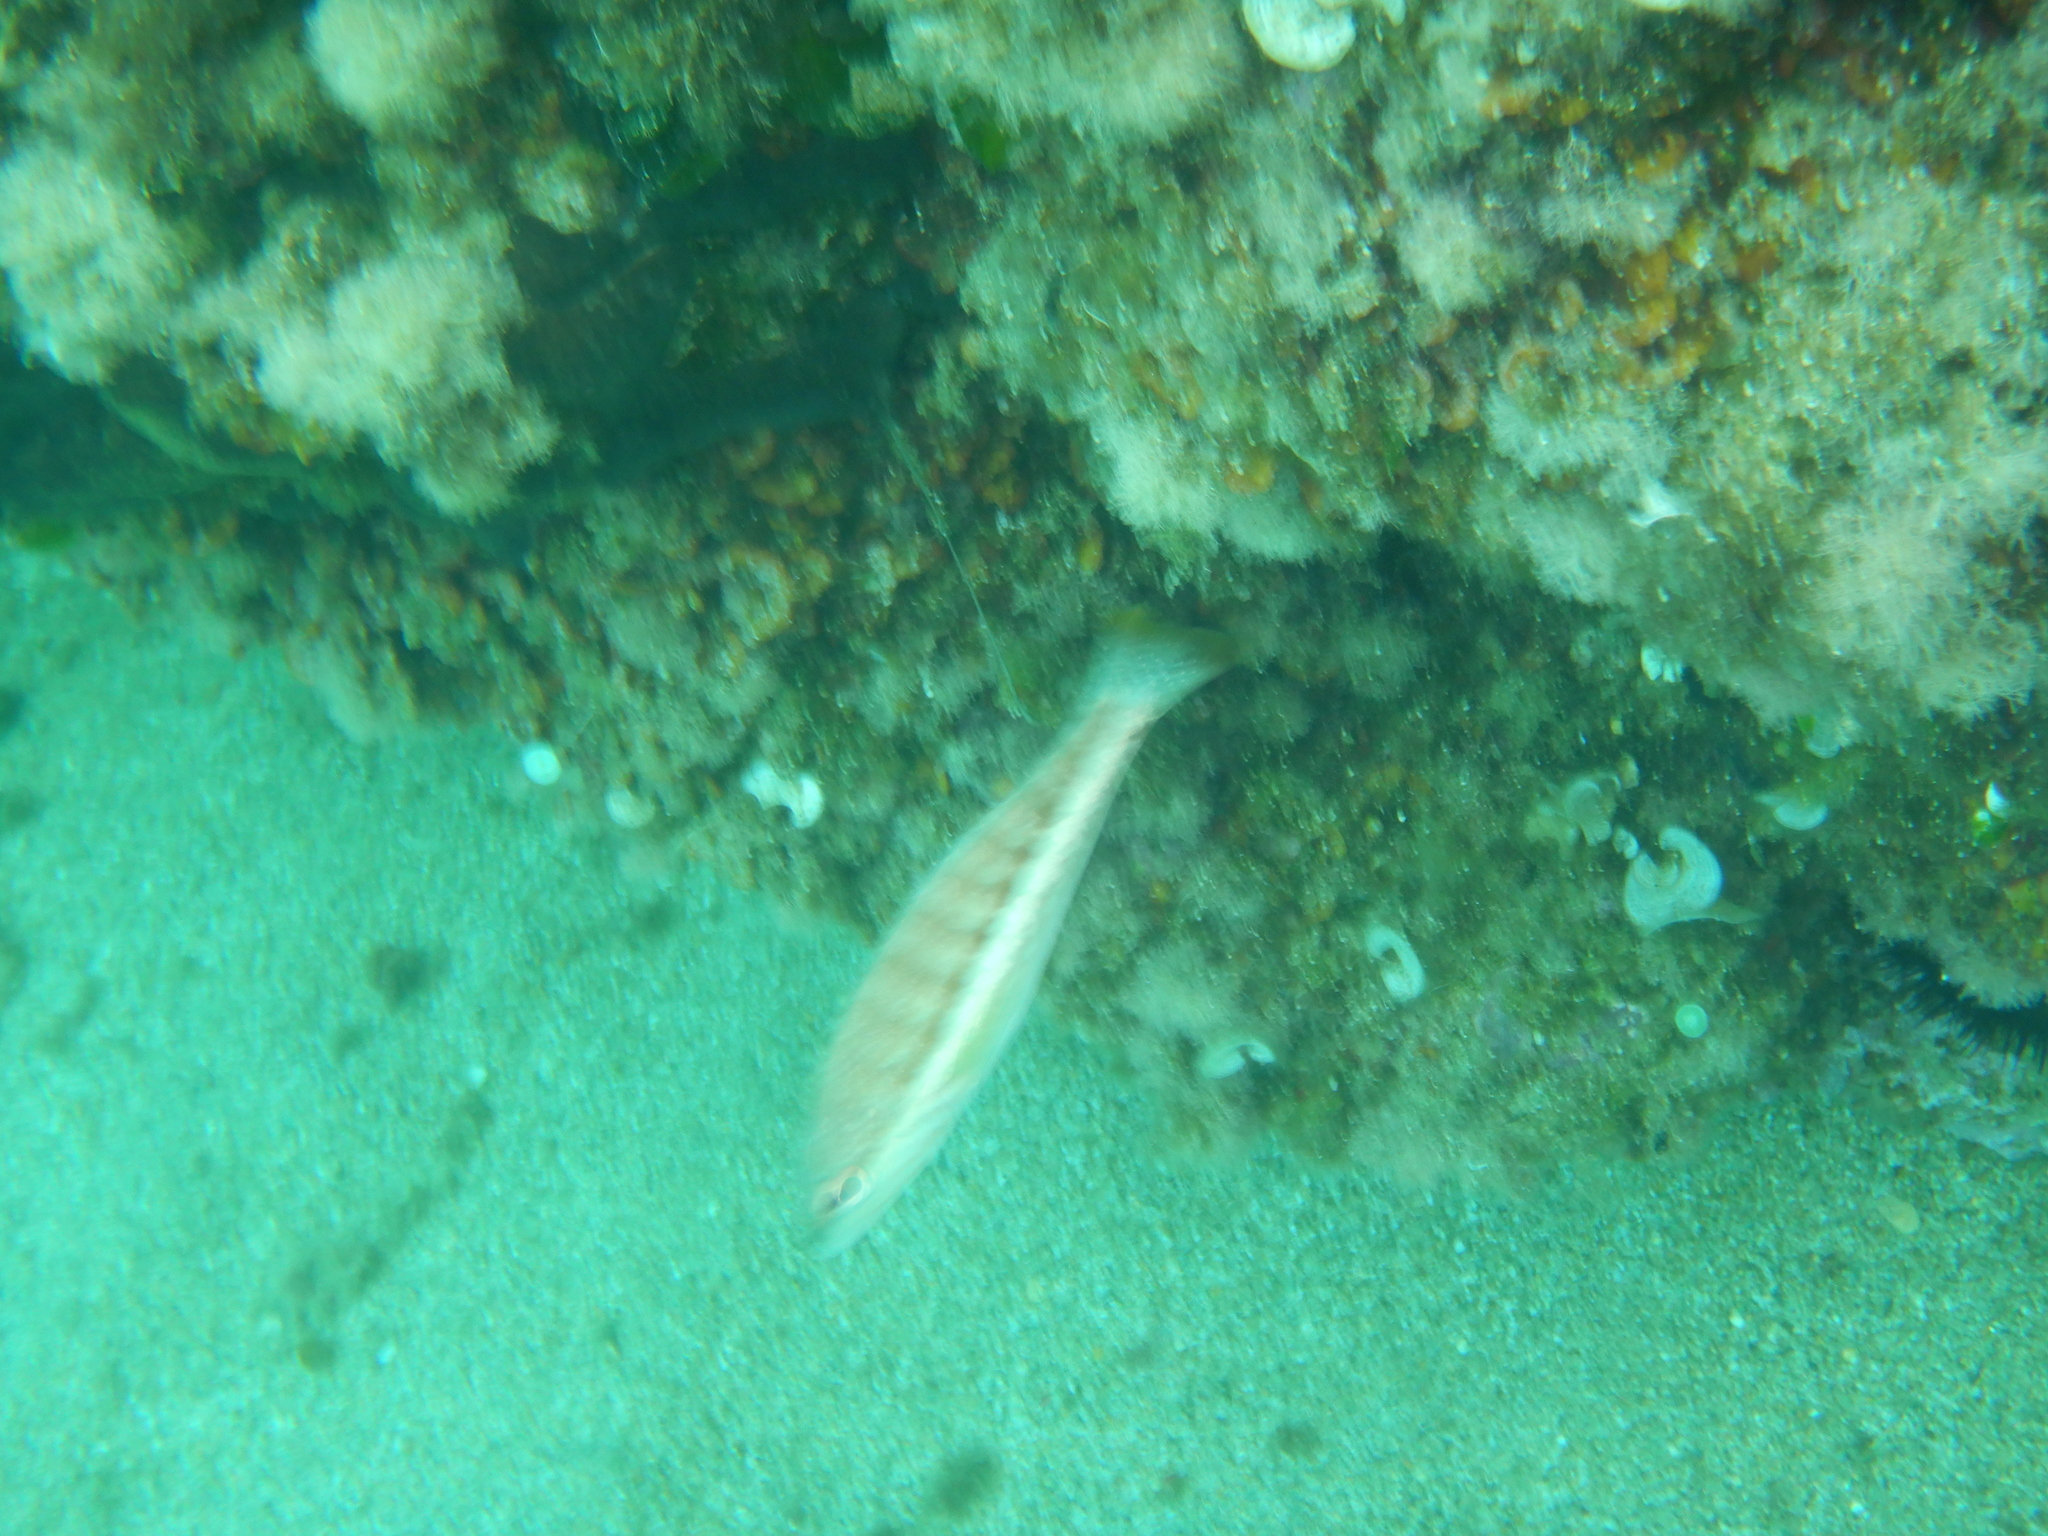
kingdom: Animalia
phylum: Chordata
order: Perciformes
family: Serranidae
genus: Serranus
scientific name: Serranus cabrilla
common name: Comber
